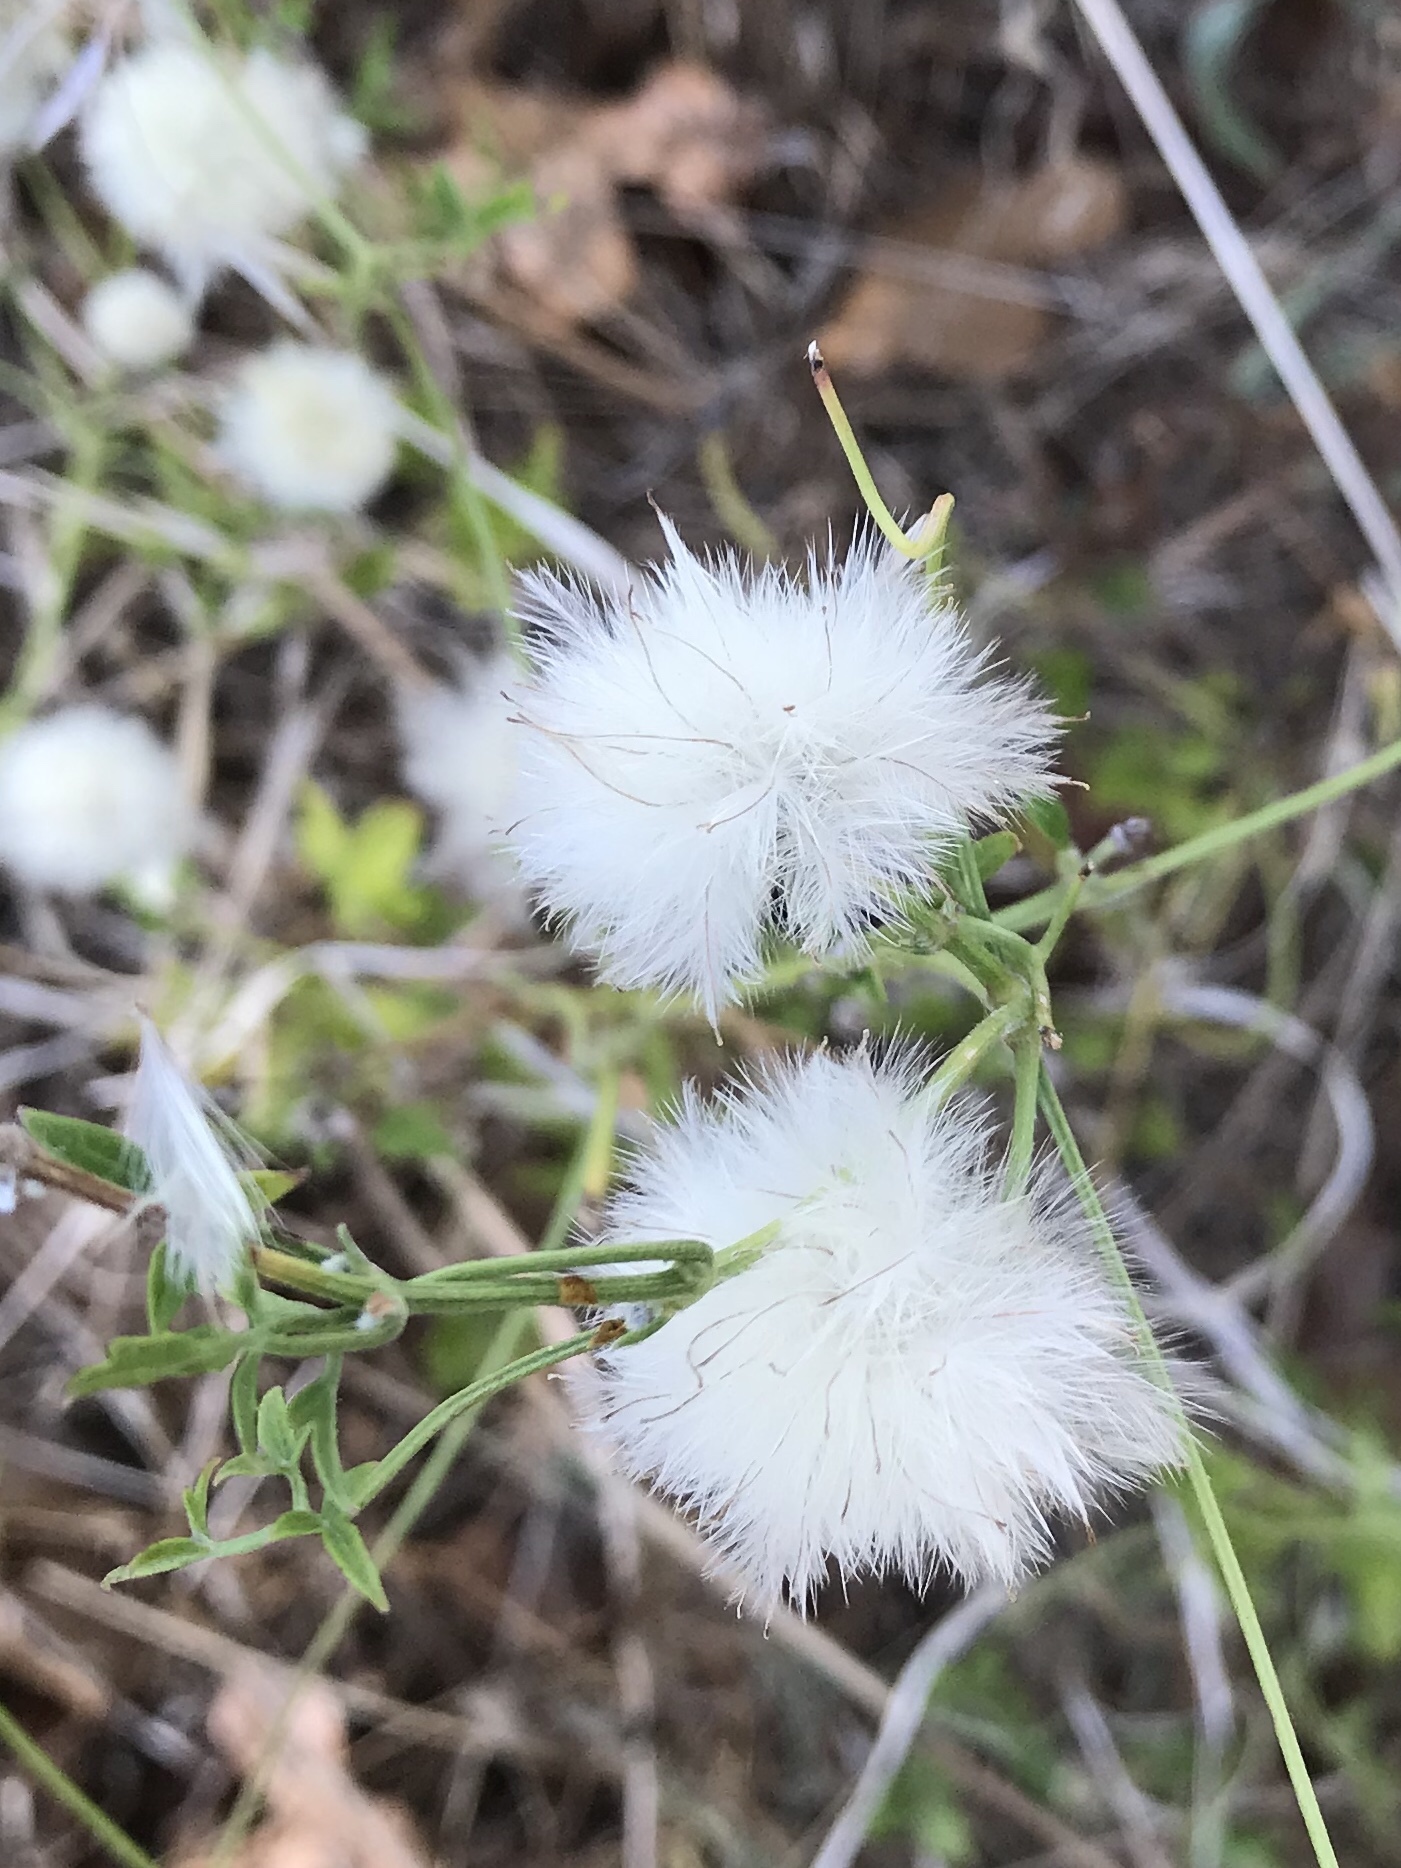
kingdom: Plantae
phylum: Tracheophyta
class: Magnoliopsida
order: Ranunculales
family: Ranunculaceae
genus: Clematis
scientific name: Clematis drummondii
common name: Texas virgin's bower
